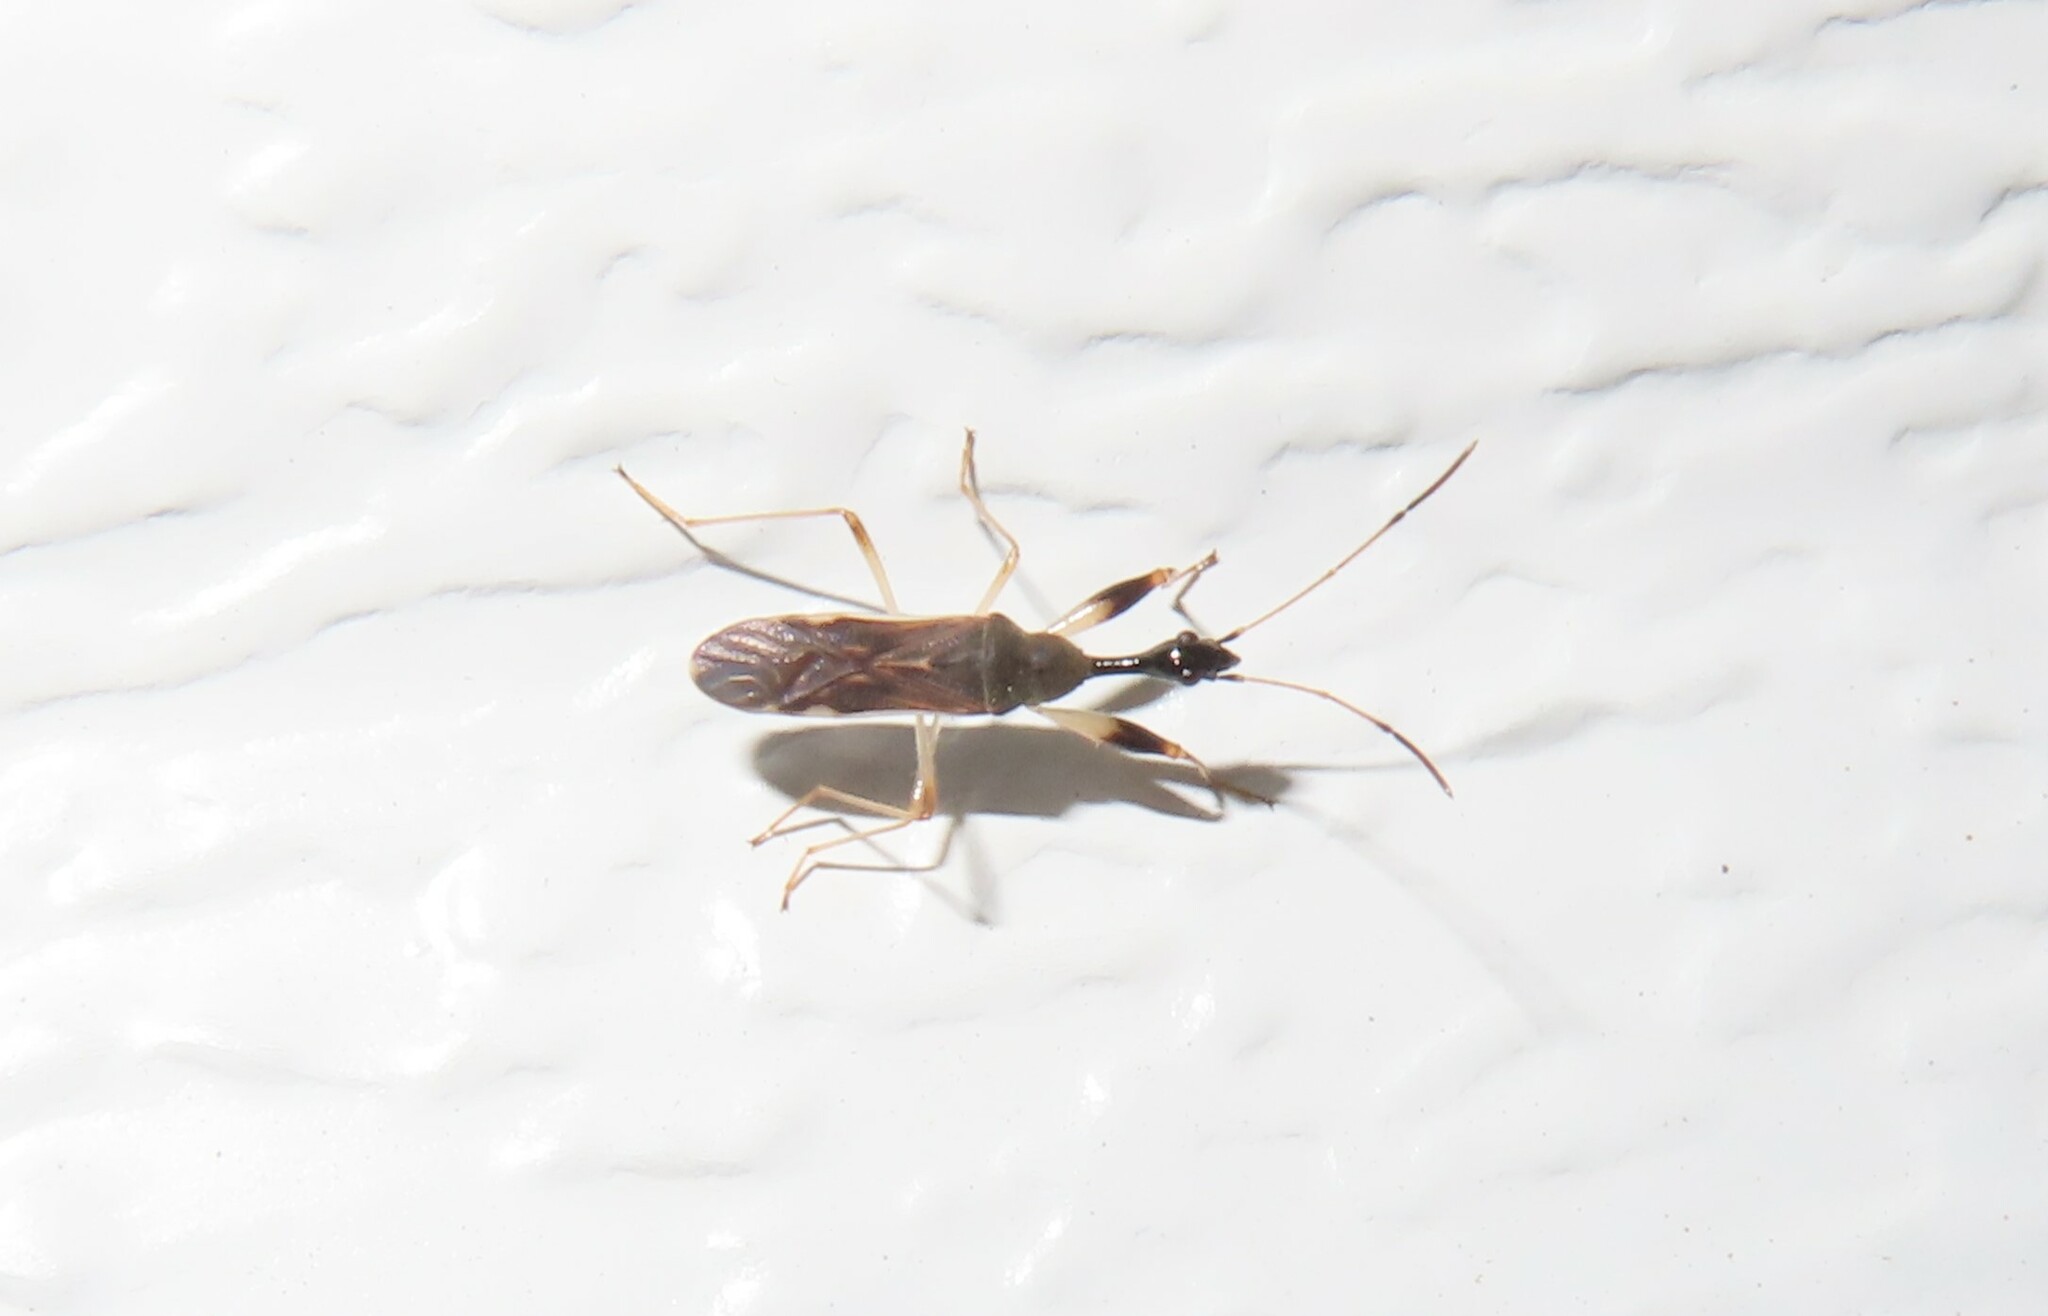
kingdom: Animalia
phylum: Arthropoda
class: Insecta
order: Hemiptera
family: Rhyparochromidae
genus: Myodocha
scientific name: Myodocha serripes
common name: Long-necked seed bug
